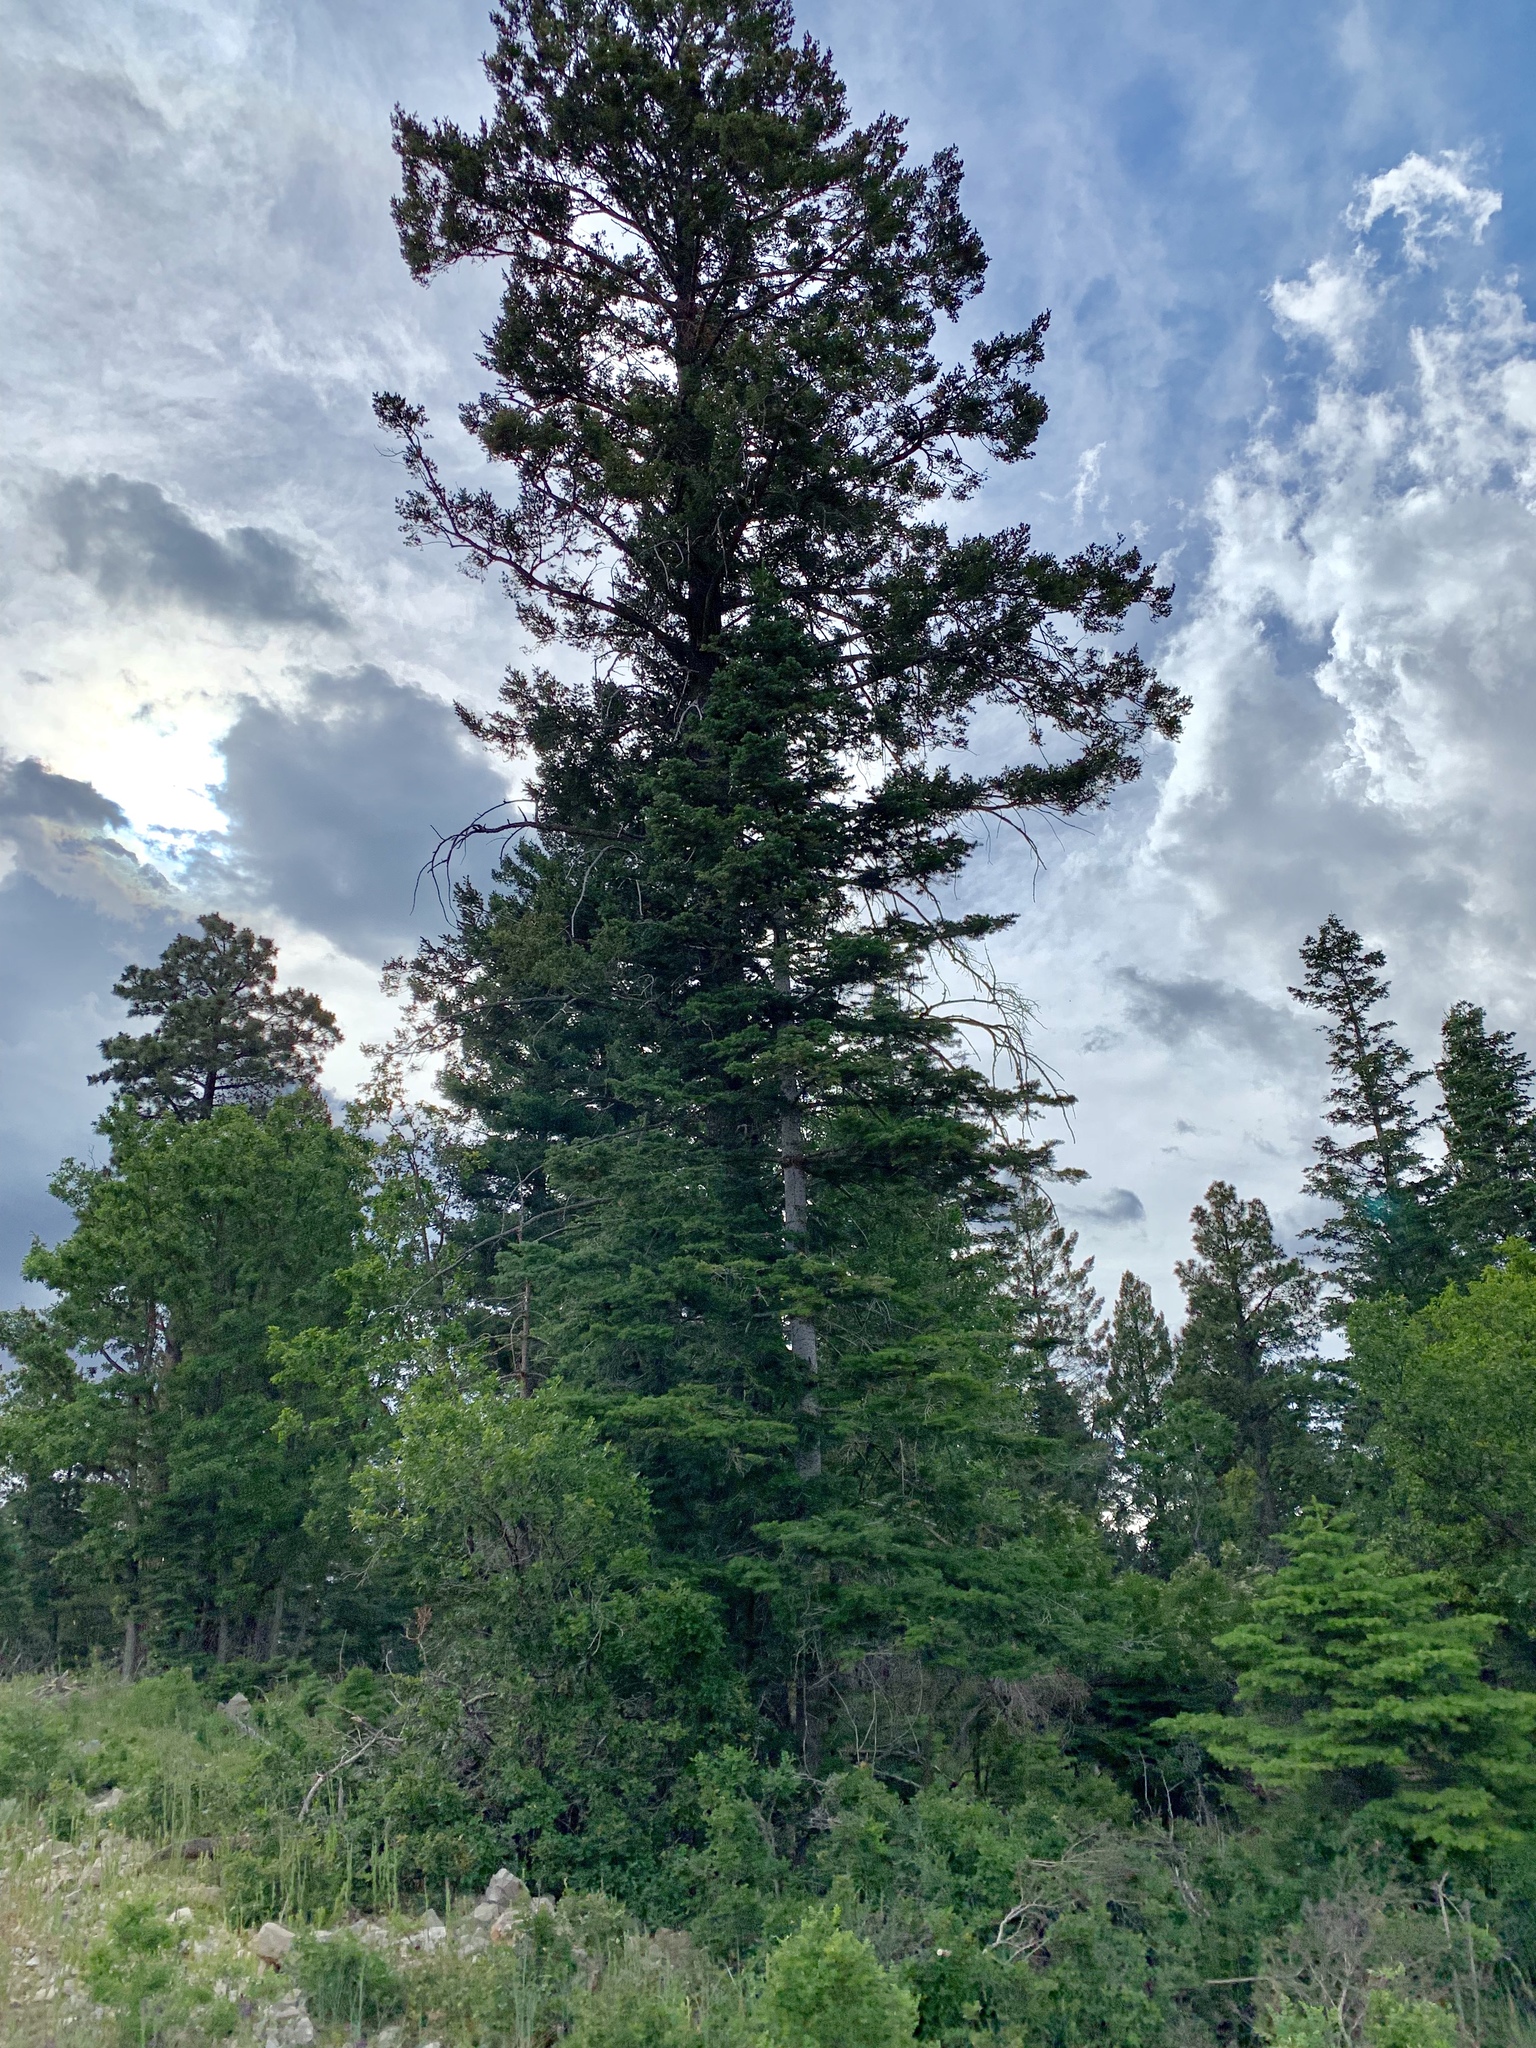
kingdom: Plantae
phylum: Tracheophyta
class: Pinopsida
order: Pinales
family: Pinaceae
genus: Abies
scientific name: Abies concolor
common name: Colorado fir
